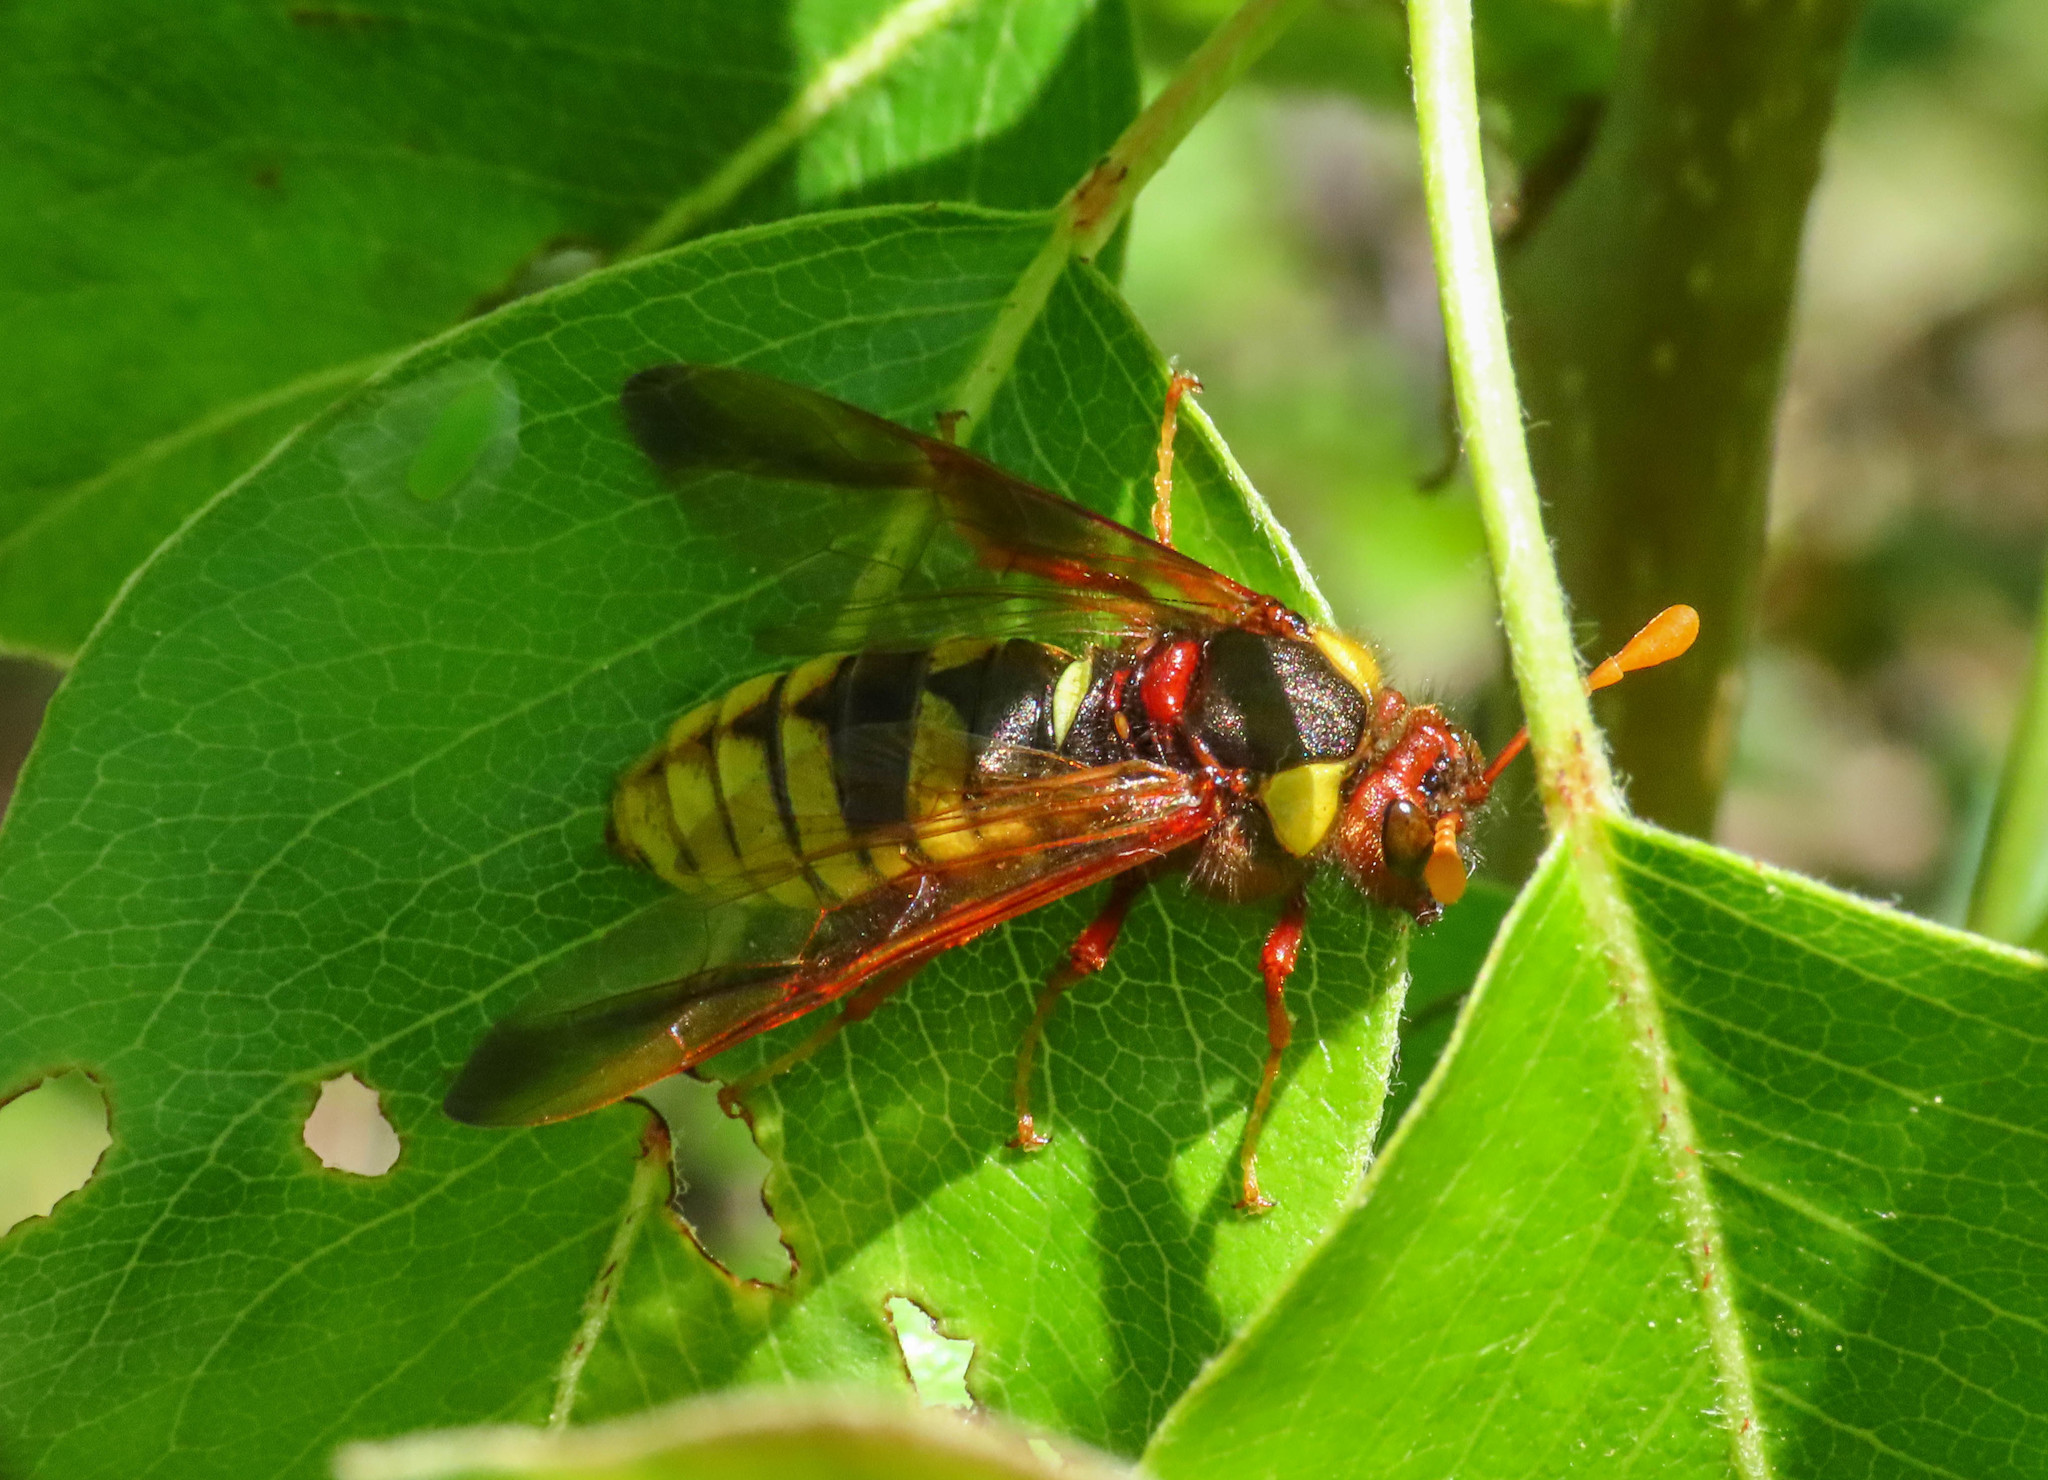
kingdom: Animalia
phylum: Arthropoda
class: Insecta
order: Hymenoptera
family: Cimbicidae
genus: Cimbex
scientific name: Cimbex quadrimaculatus
